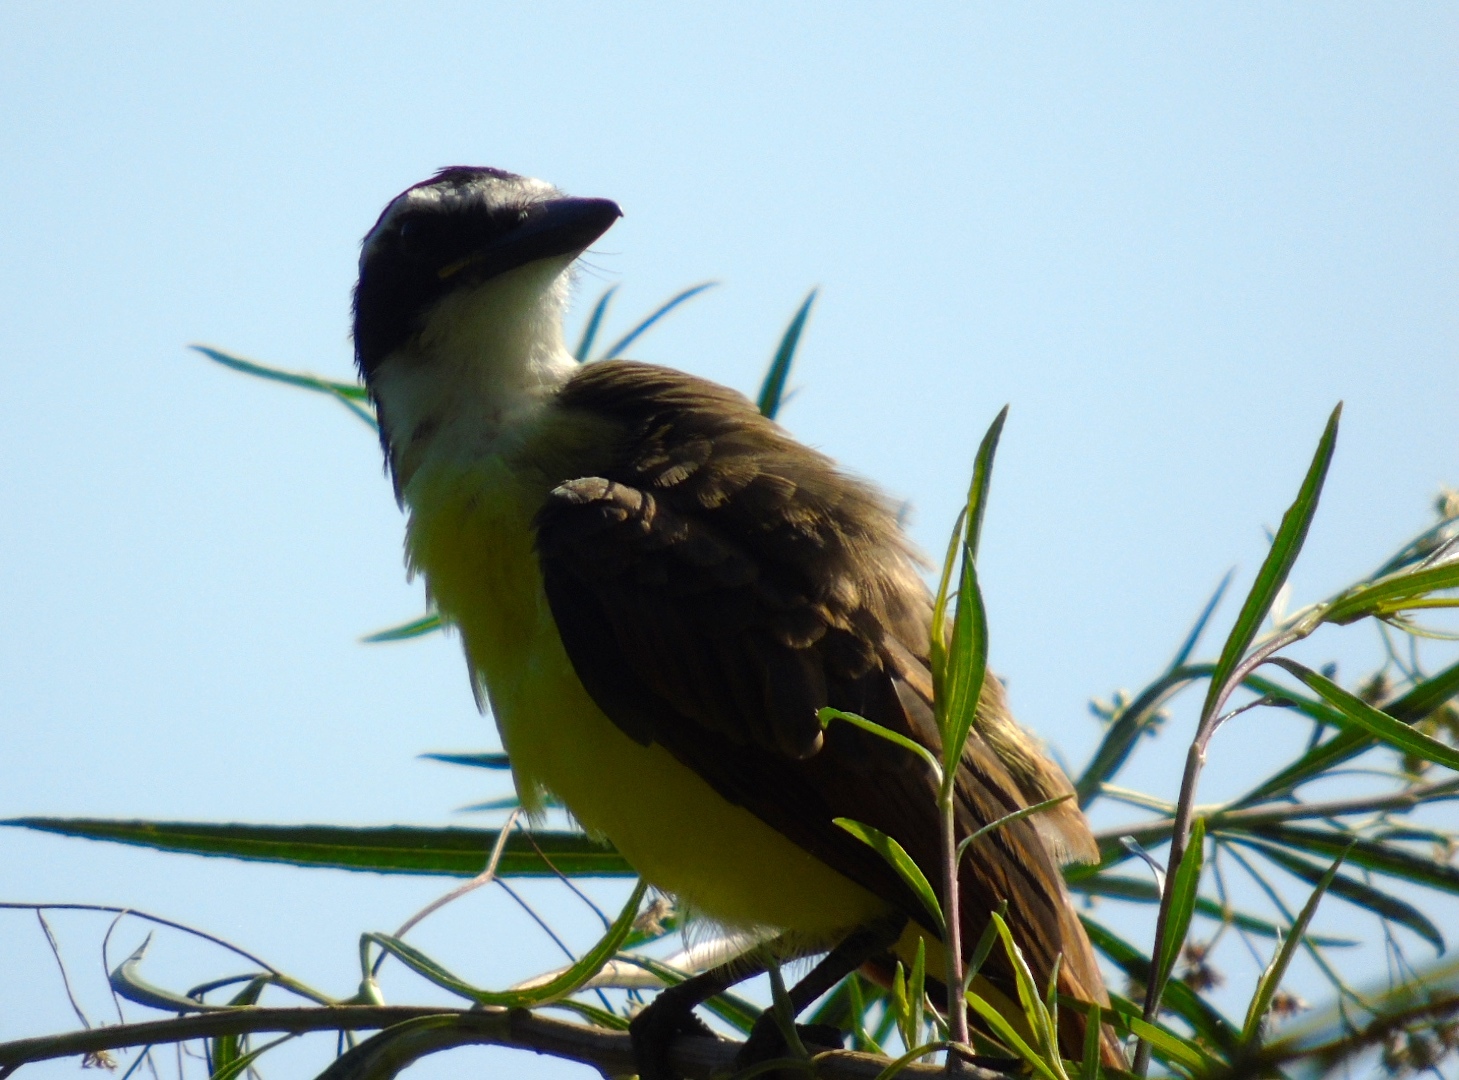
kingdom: Animalia
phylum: Chordata
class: Aves
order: Passeriformes
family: Tyrannidae
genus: Pitangus
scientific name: Pitangus sulphuratus
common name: Great kiskadee
